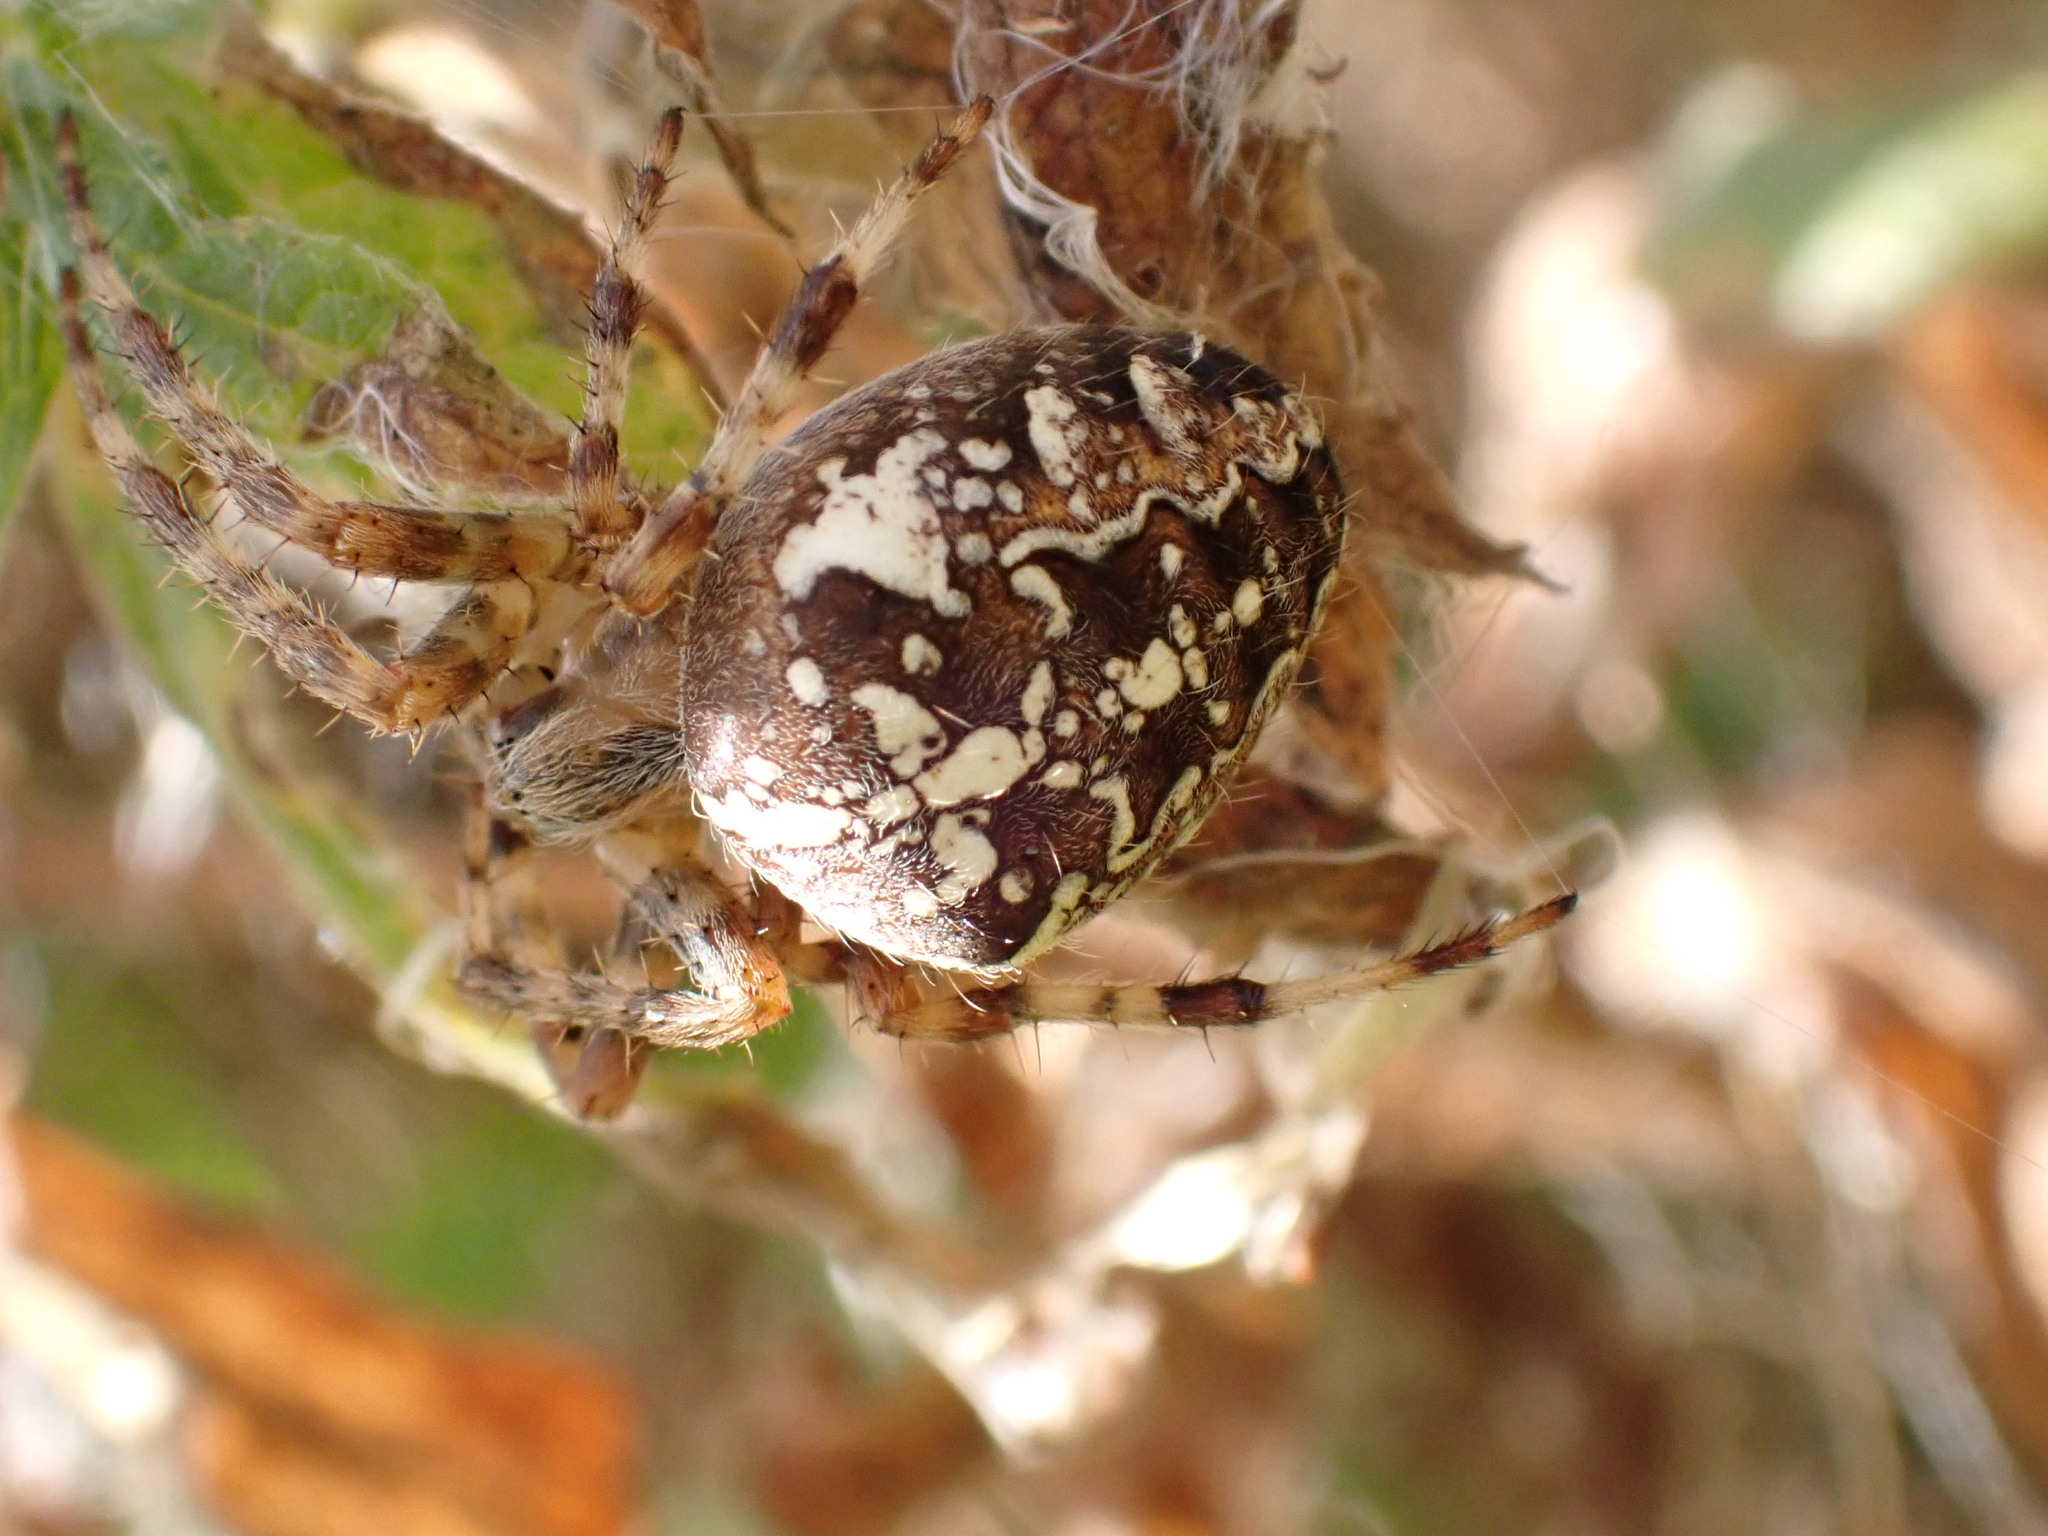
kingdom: Animalia
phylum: Arthropoda
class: Arachnida
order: Araneae
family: Araneidae
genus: Araneus
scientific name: Araneus diadematus
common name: Cross orbweaver
